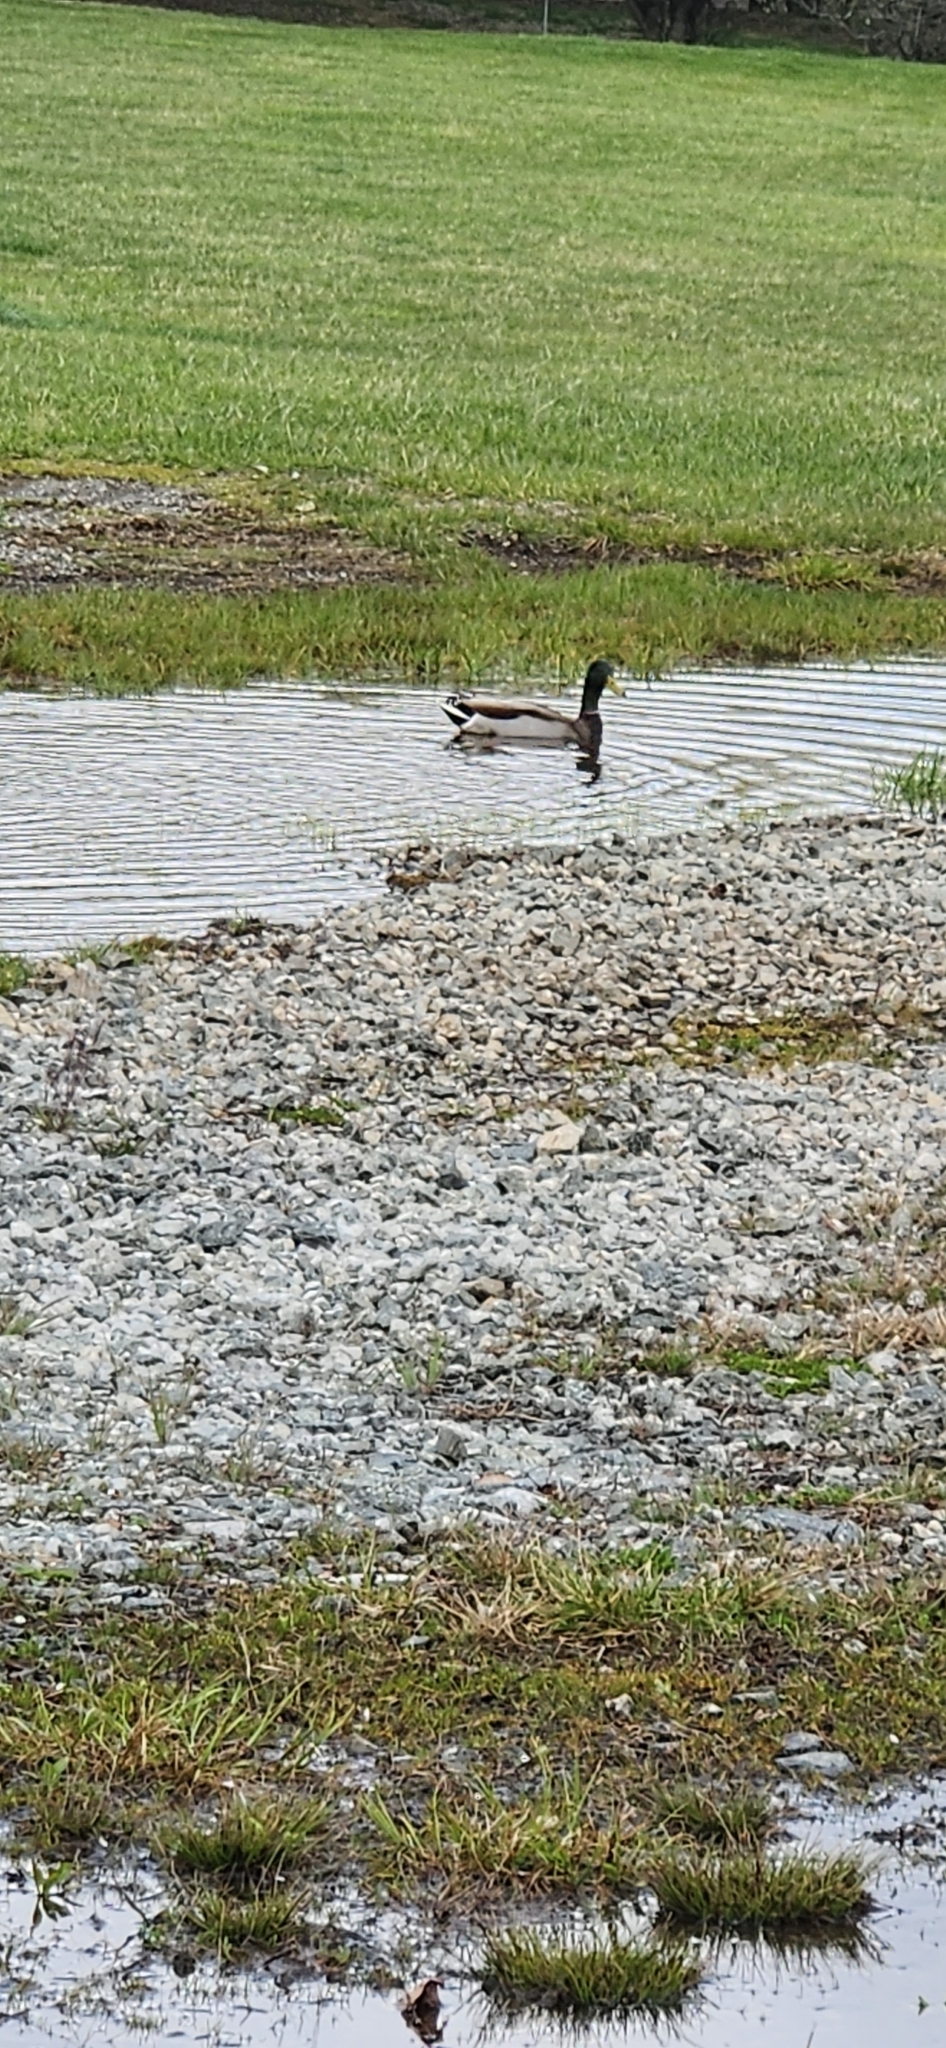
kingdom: Animalia
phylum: Chordata
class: Aves
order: Anseriformes
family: Anatidae
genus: Anas
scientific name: Anas platyrhynchos
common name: Mallard
